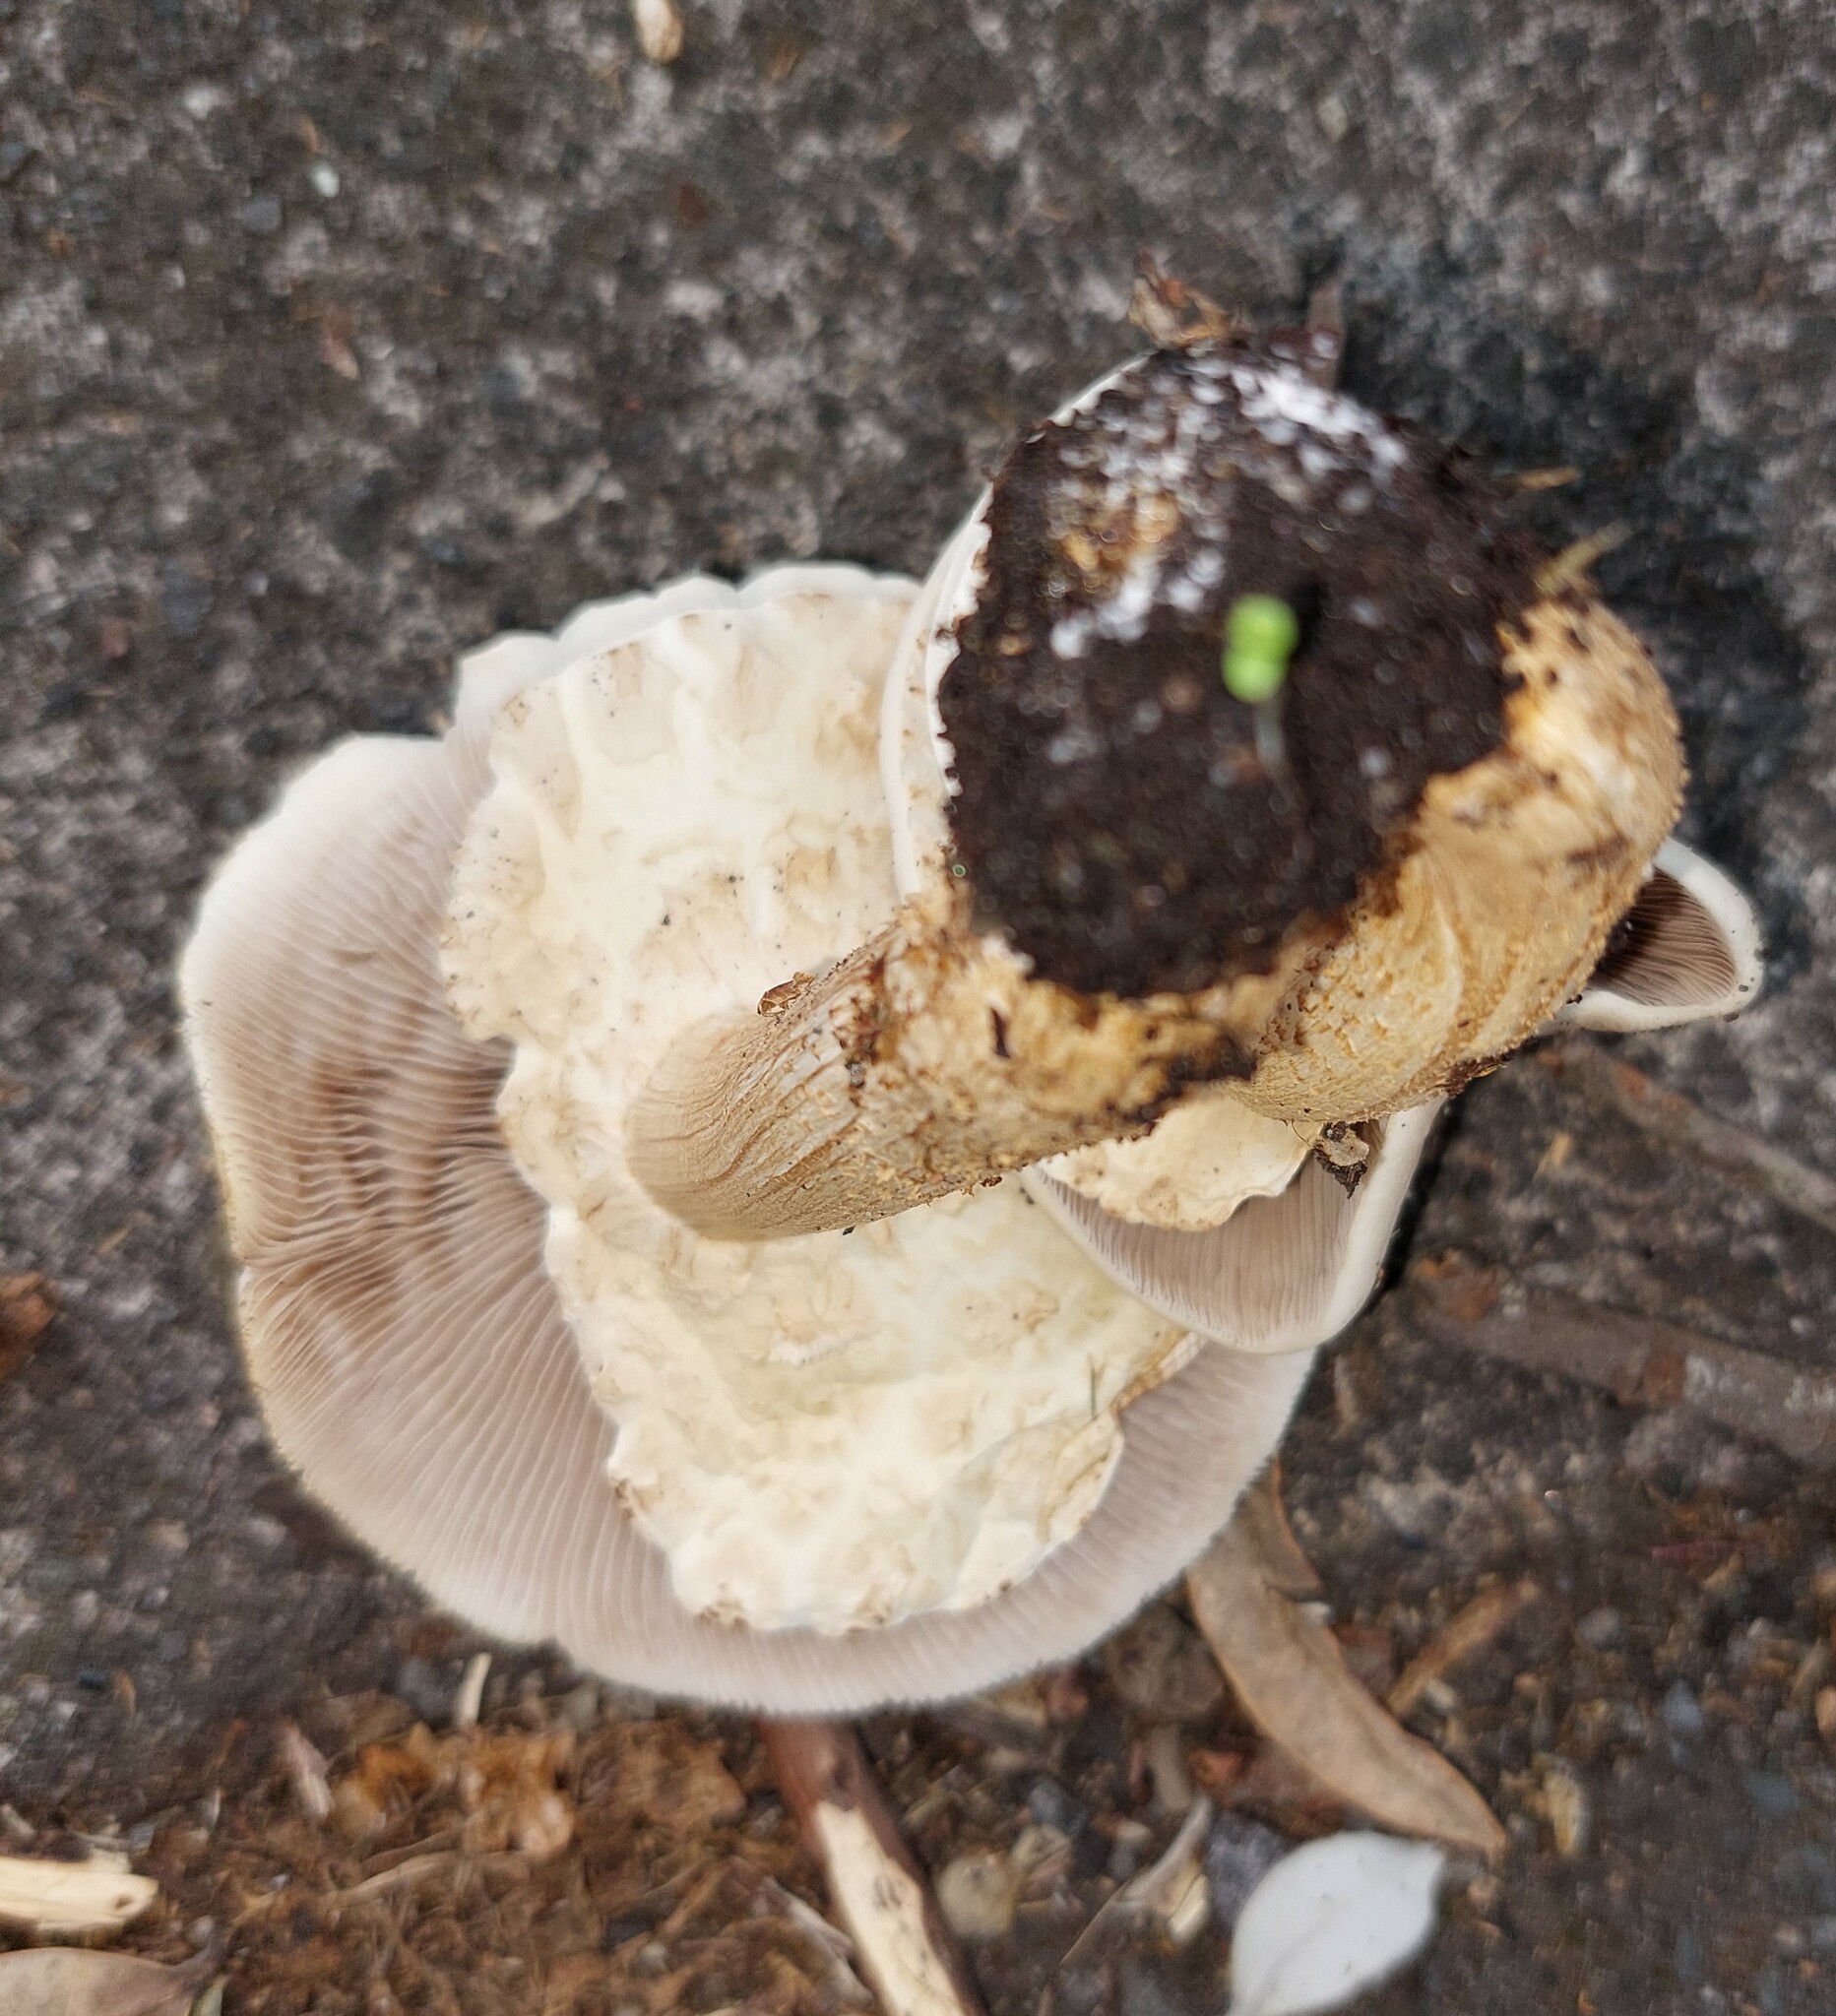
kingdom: Fungi
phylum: Basidiomycota
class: Agaricomycetes
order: Agaricales
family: Tubariaceae
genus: Cyclocybe
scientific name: Cyclocybe parasitica
